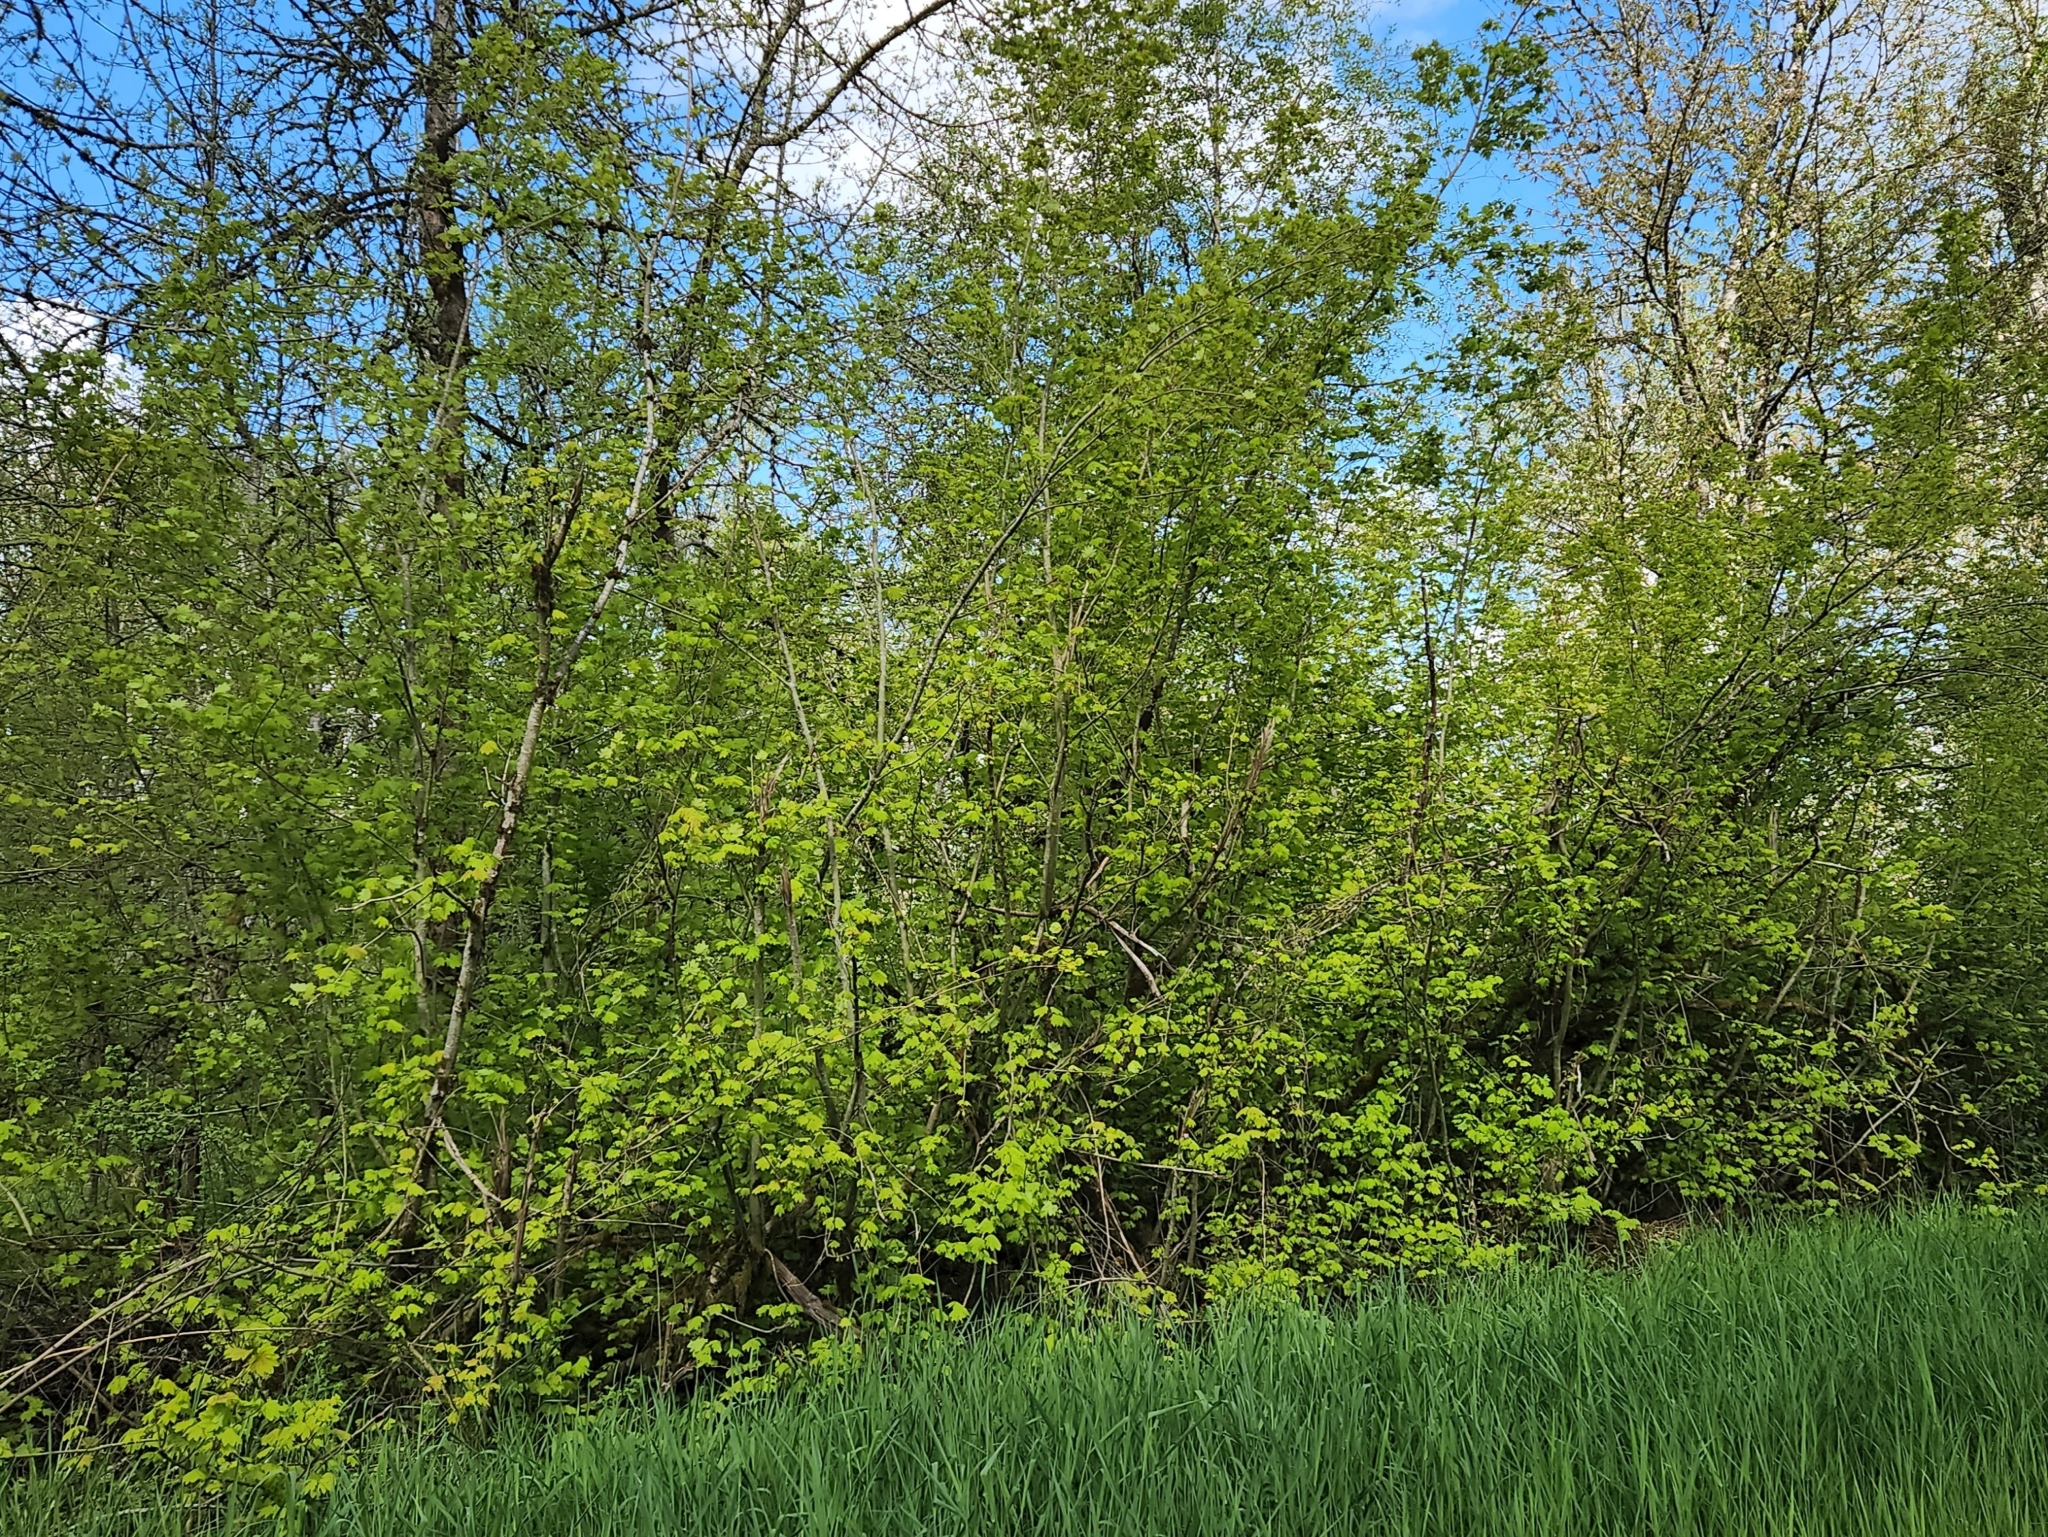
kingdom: Plantae
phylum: Tracheophyta
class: Magnoliopsida
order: Sapindales
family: Sapindaceae
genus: Acer
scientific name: Acer circinatum
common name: Vine maple
